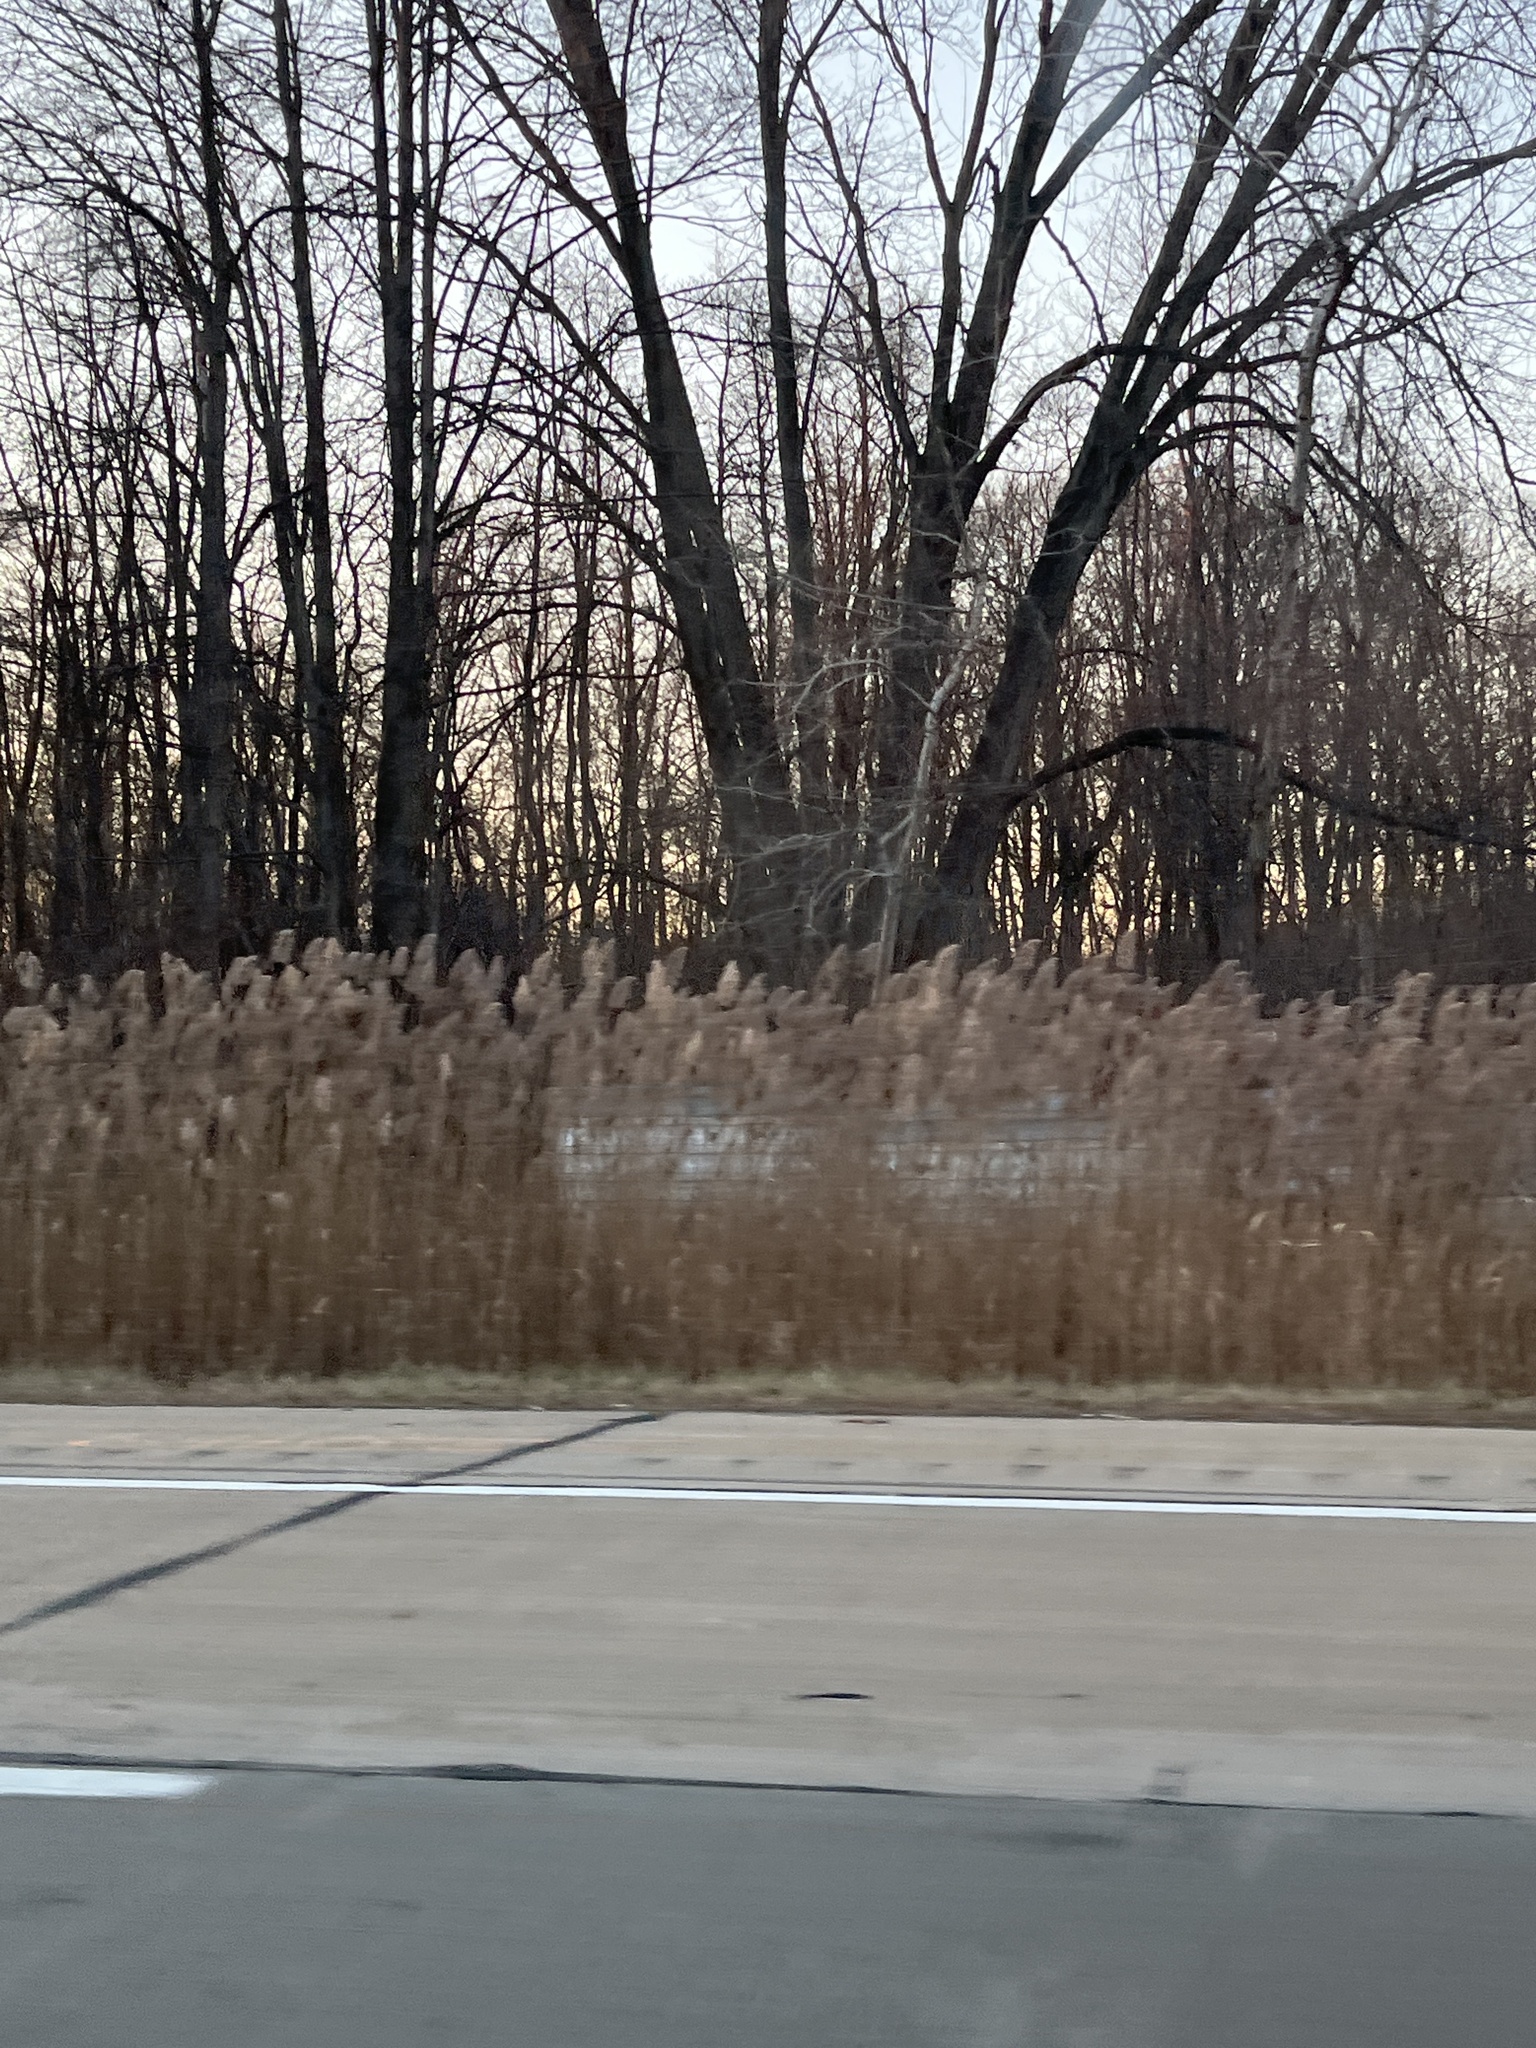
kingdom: Plantae
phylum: Tracheophyta
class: Liliopsida
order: Poales
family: Poaceae
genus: Phragmites
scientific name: Phragmites australis
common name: Common reed
